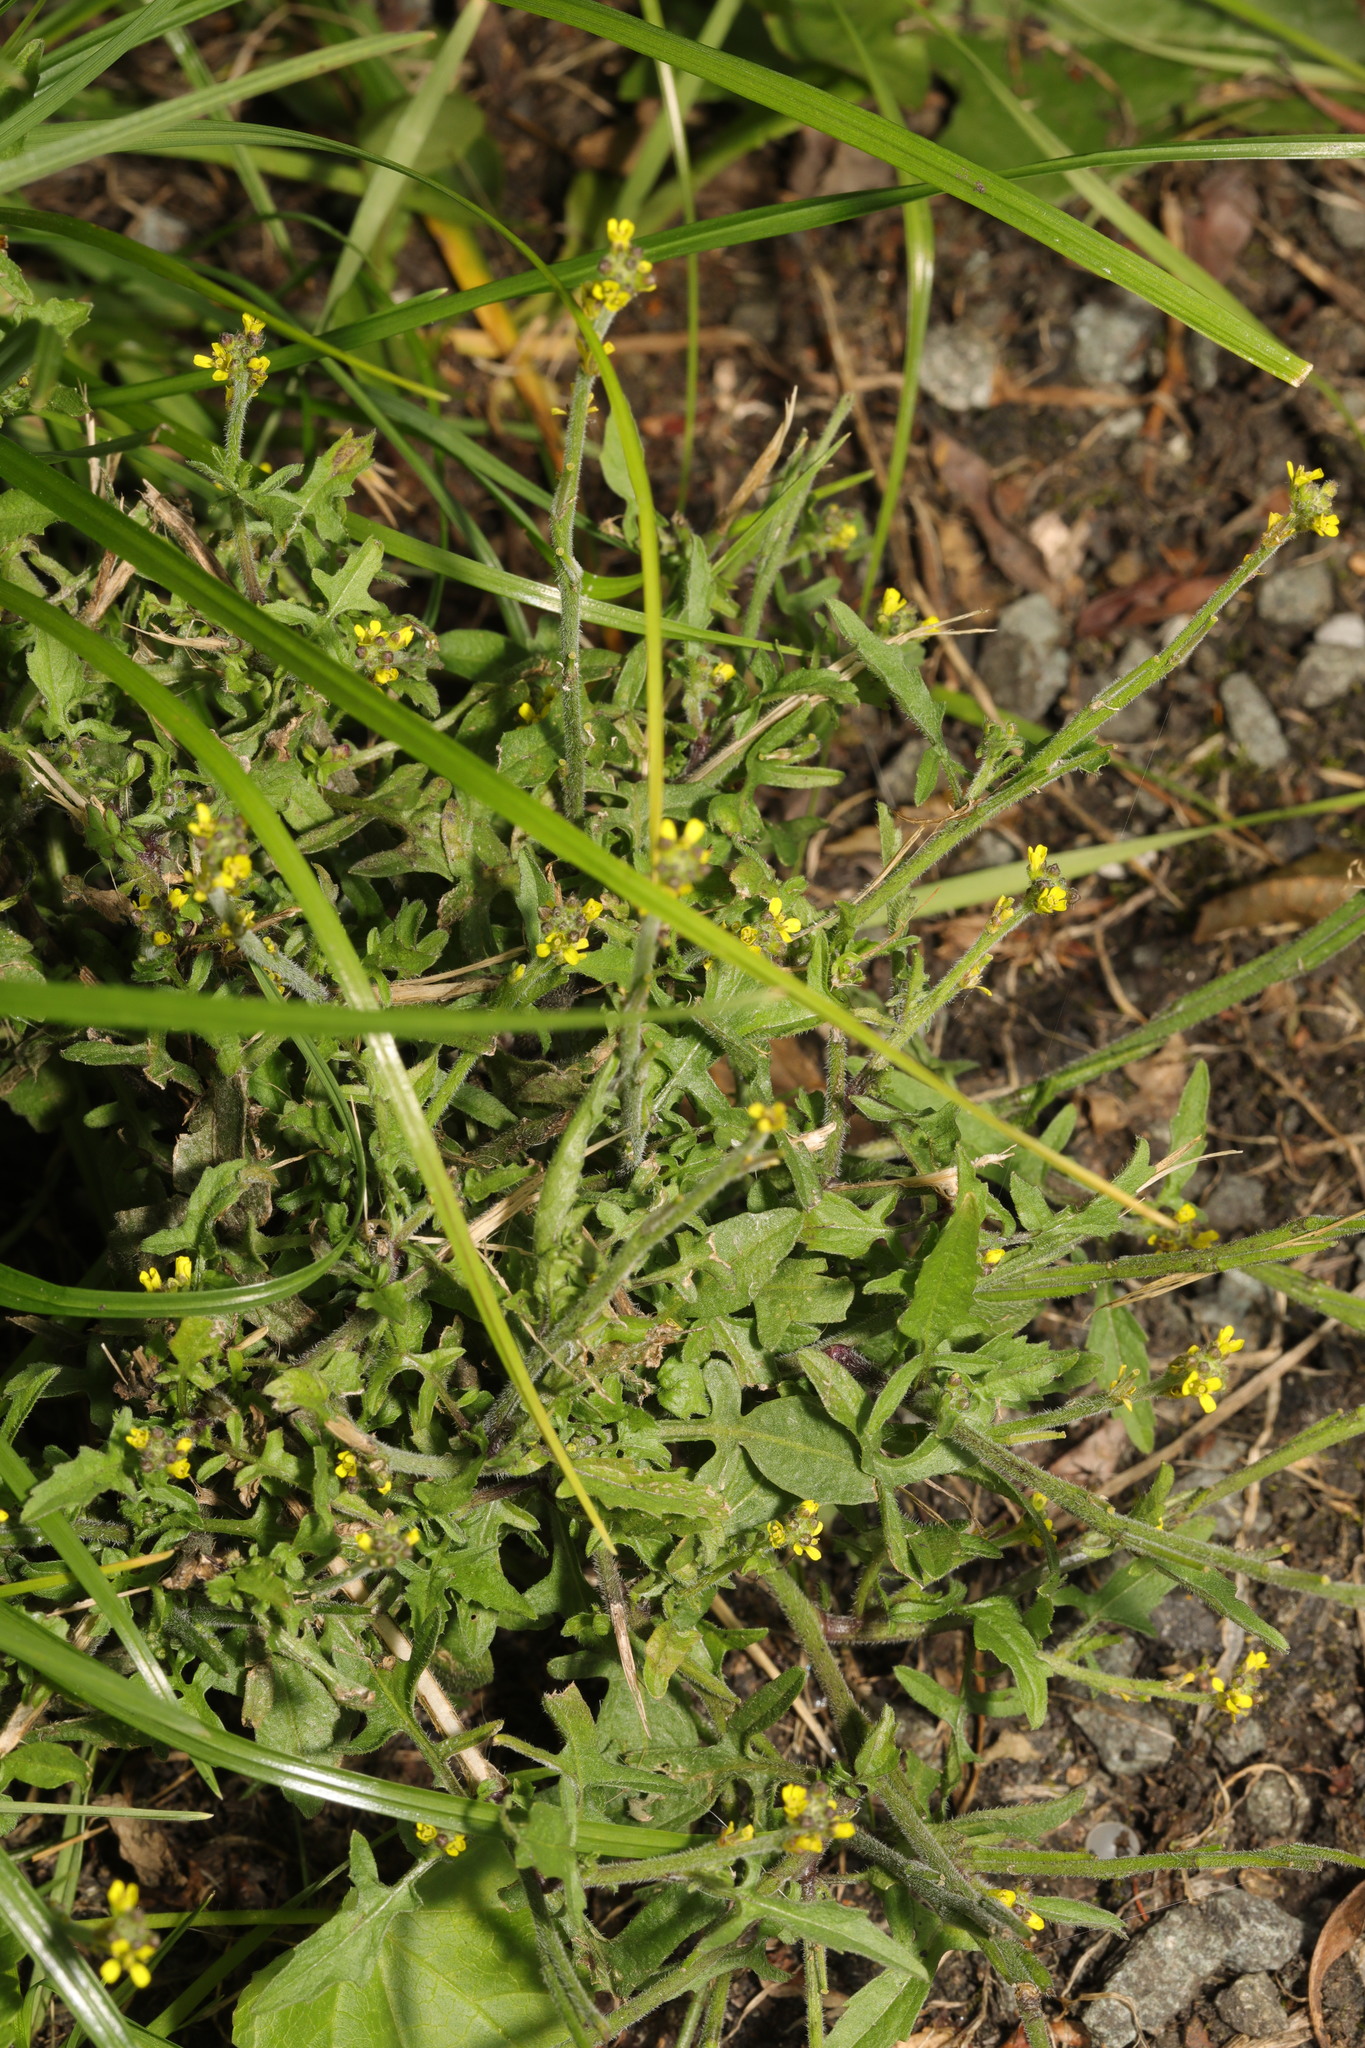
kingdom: Plantae
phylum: Tracheophyta
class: Magnoliopsida
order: Brassicales
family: Brassicaceae
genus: Sisymbrium
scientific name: Sisymbrium officinale
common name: Hedge mustard
